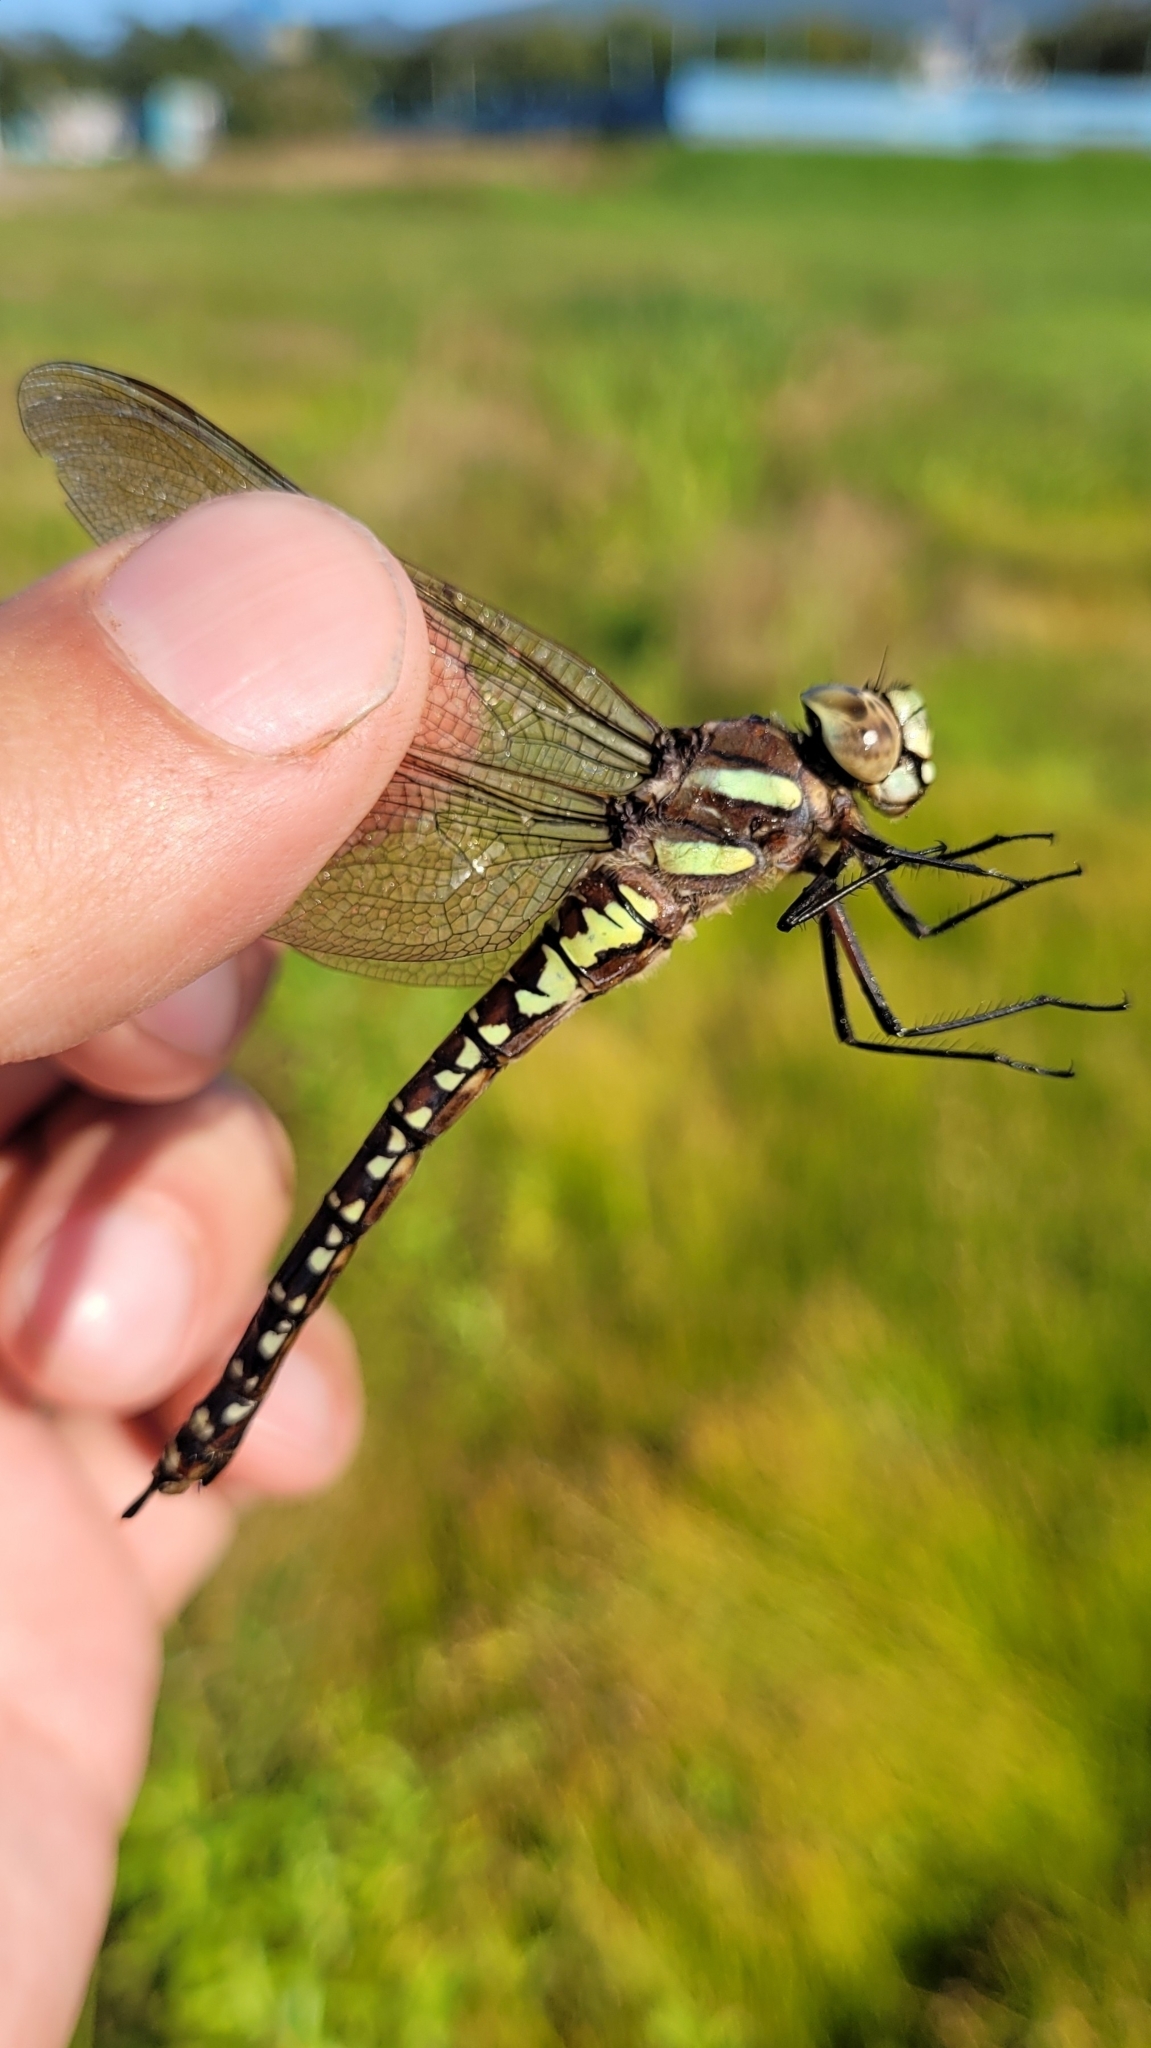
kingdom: Animalia
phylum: Arthropoda
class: Insecta
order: Odonata
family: Aeshnidae
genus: Aeshna
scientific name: Aeshna juncea
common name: Moorland hawker
